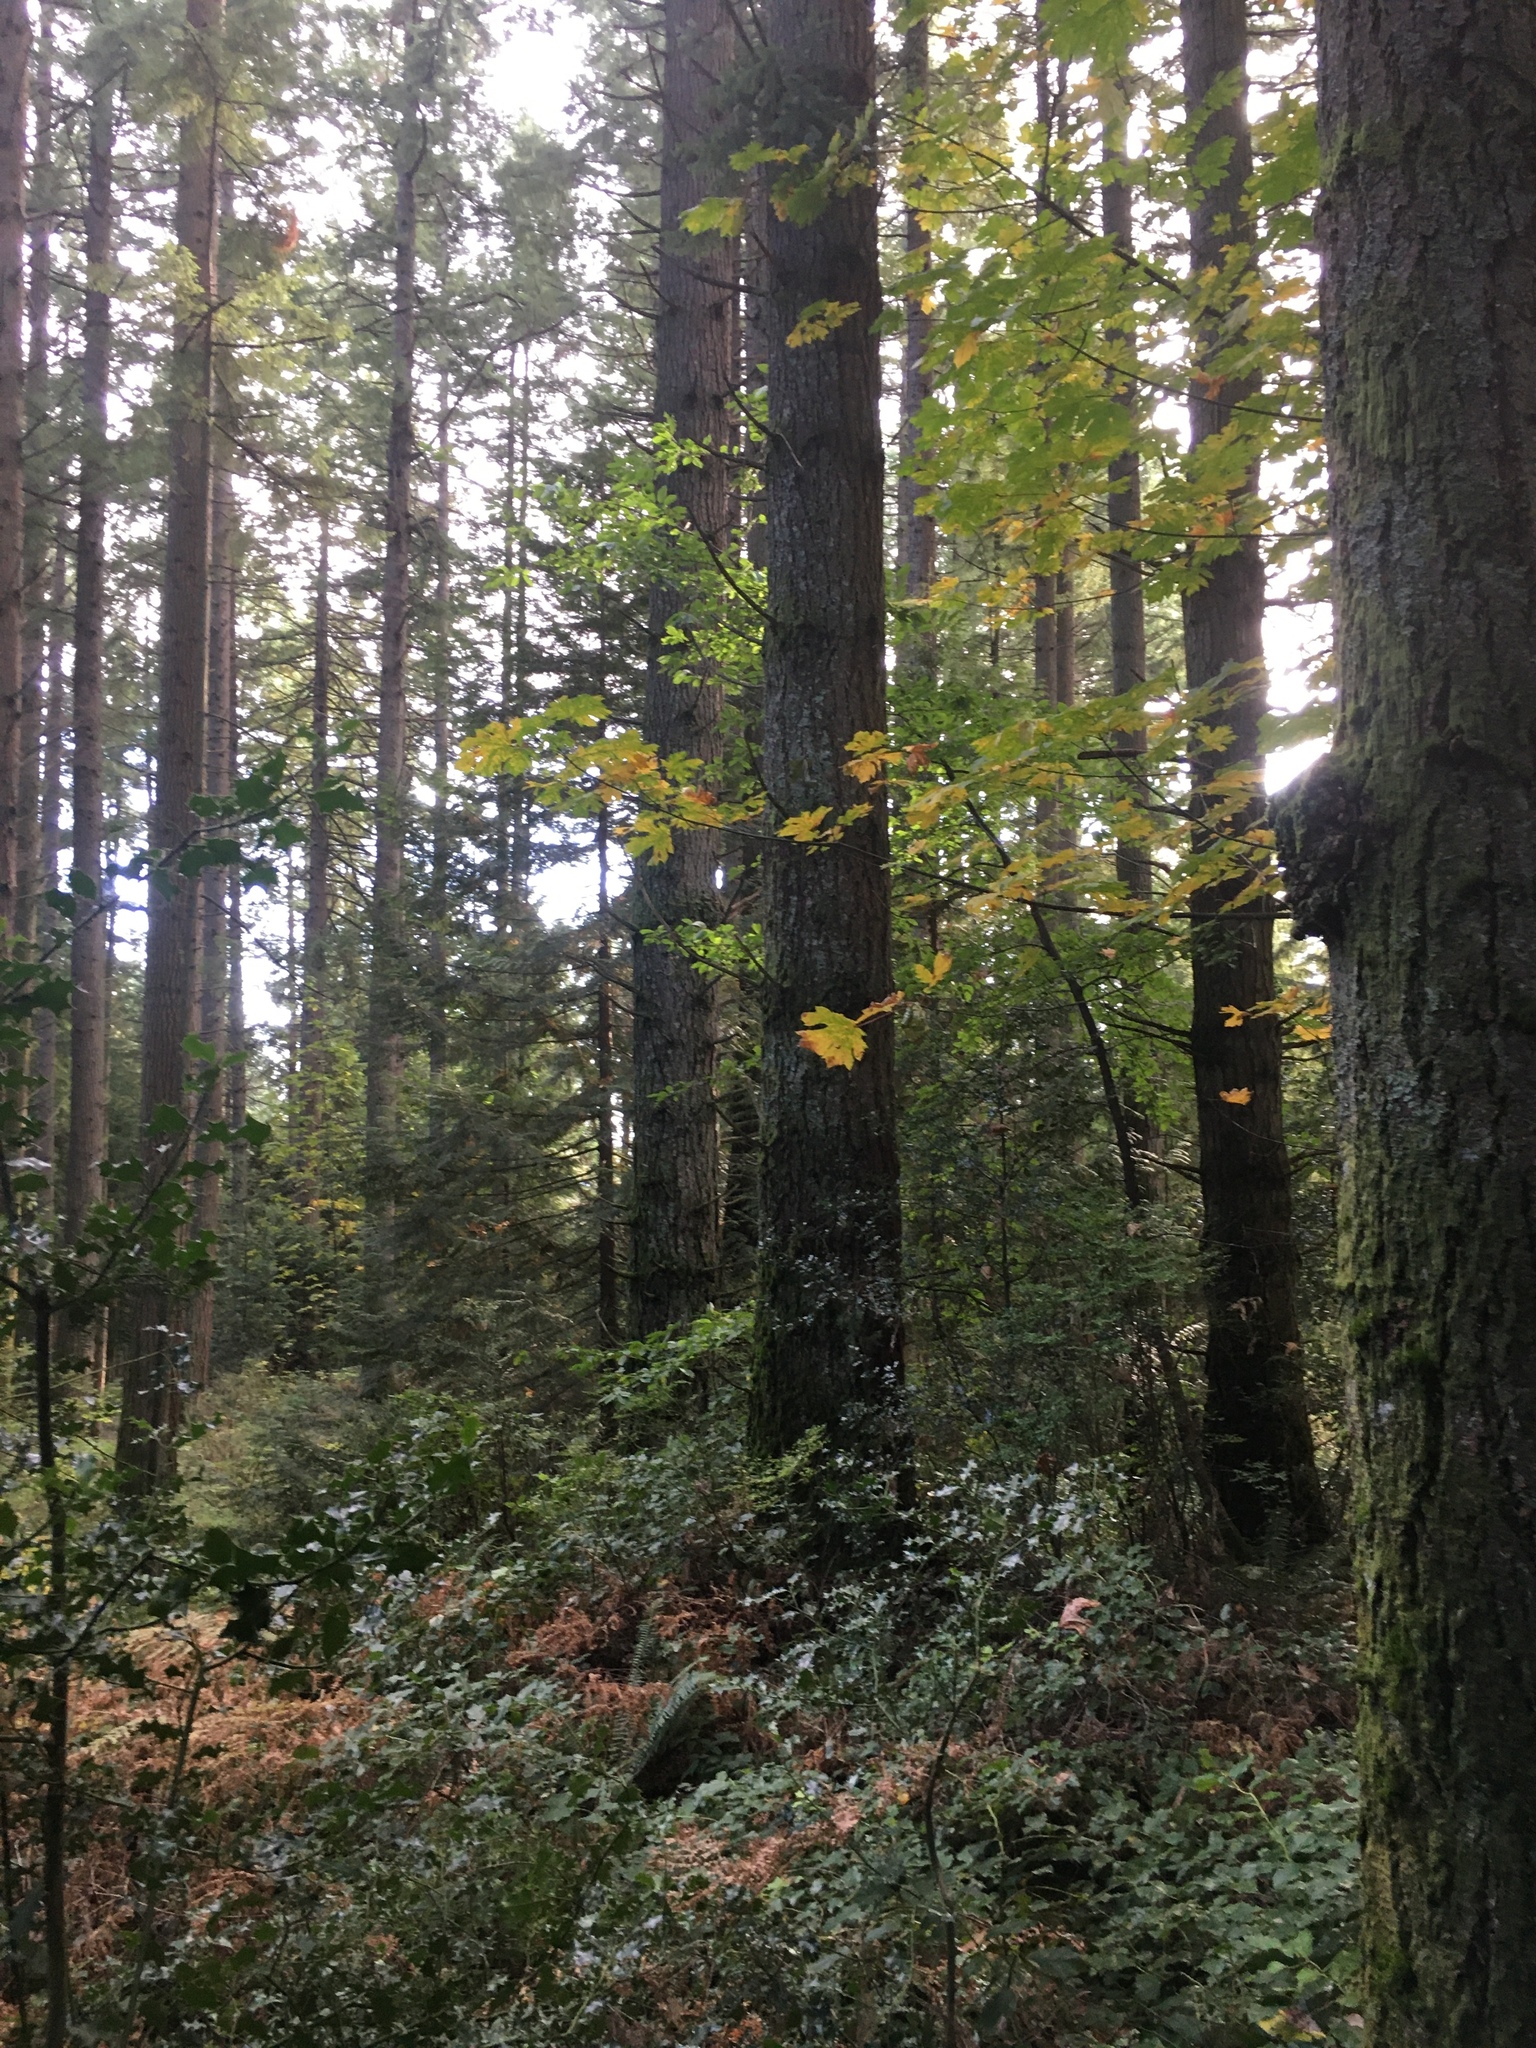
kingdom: Plantae
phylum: Tracheophyta
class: Magnoliopsida
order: Sapindales
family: Sapindaceae
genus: Acer
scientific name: Acer macrophyllum
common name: Oregon maple
